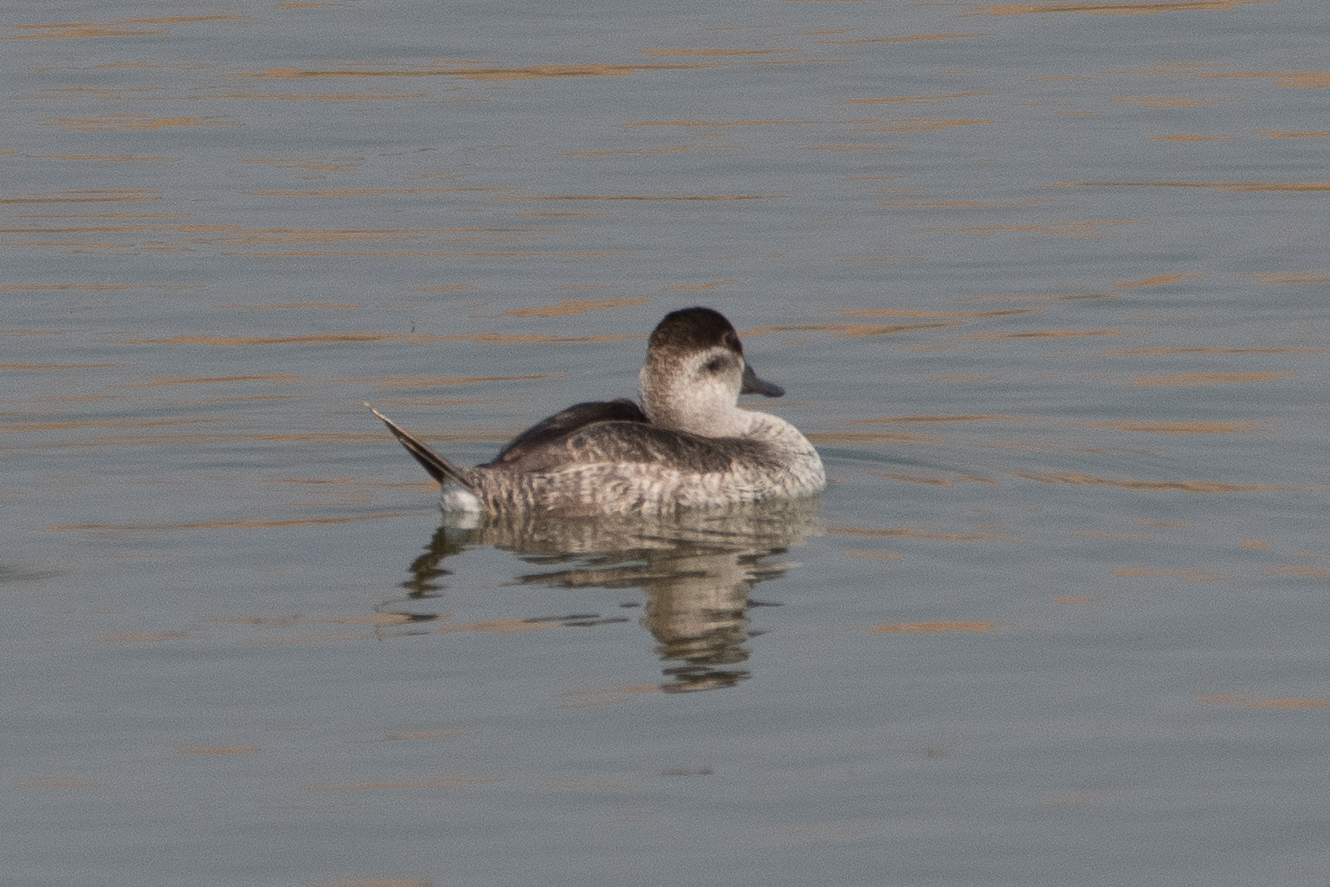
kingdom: Animalia
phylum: Chordata
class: Aves
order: Anseriformes
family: Anatidae
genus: Oxyura
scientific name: Oxyura jamaicensis
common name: Ruddy duck
